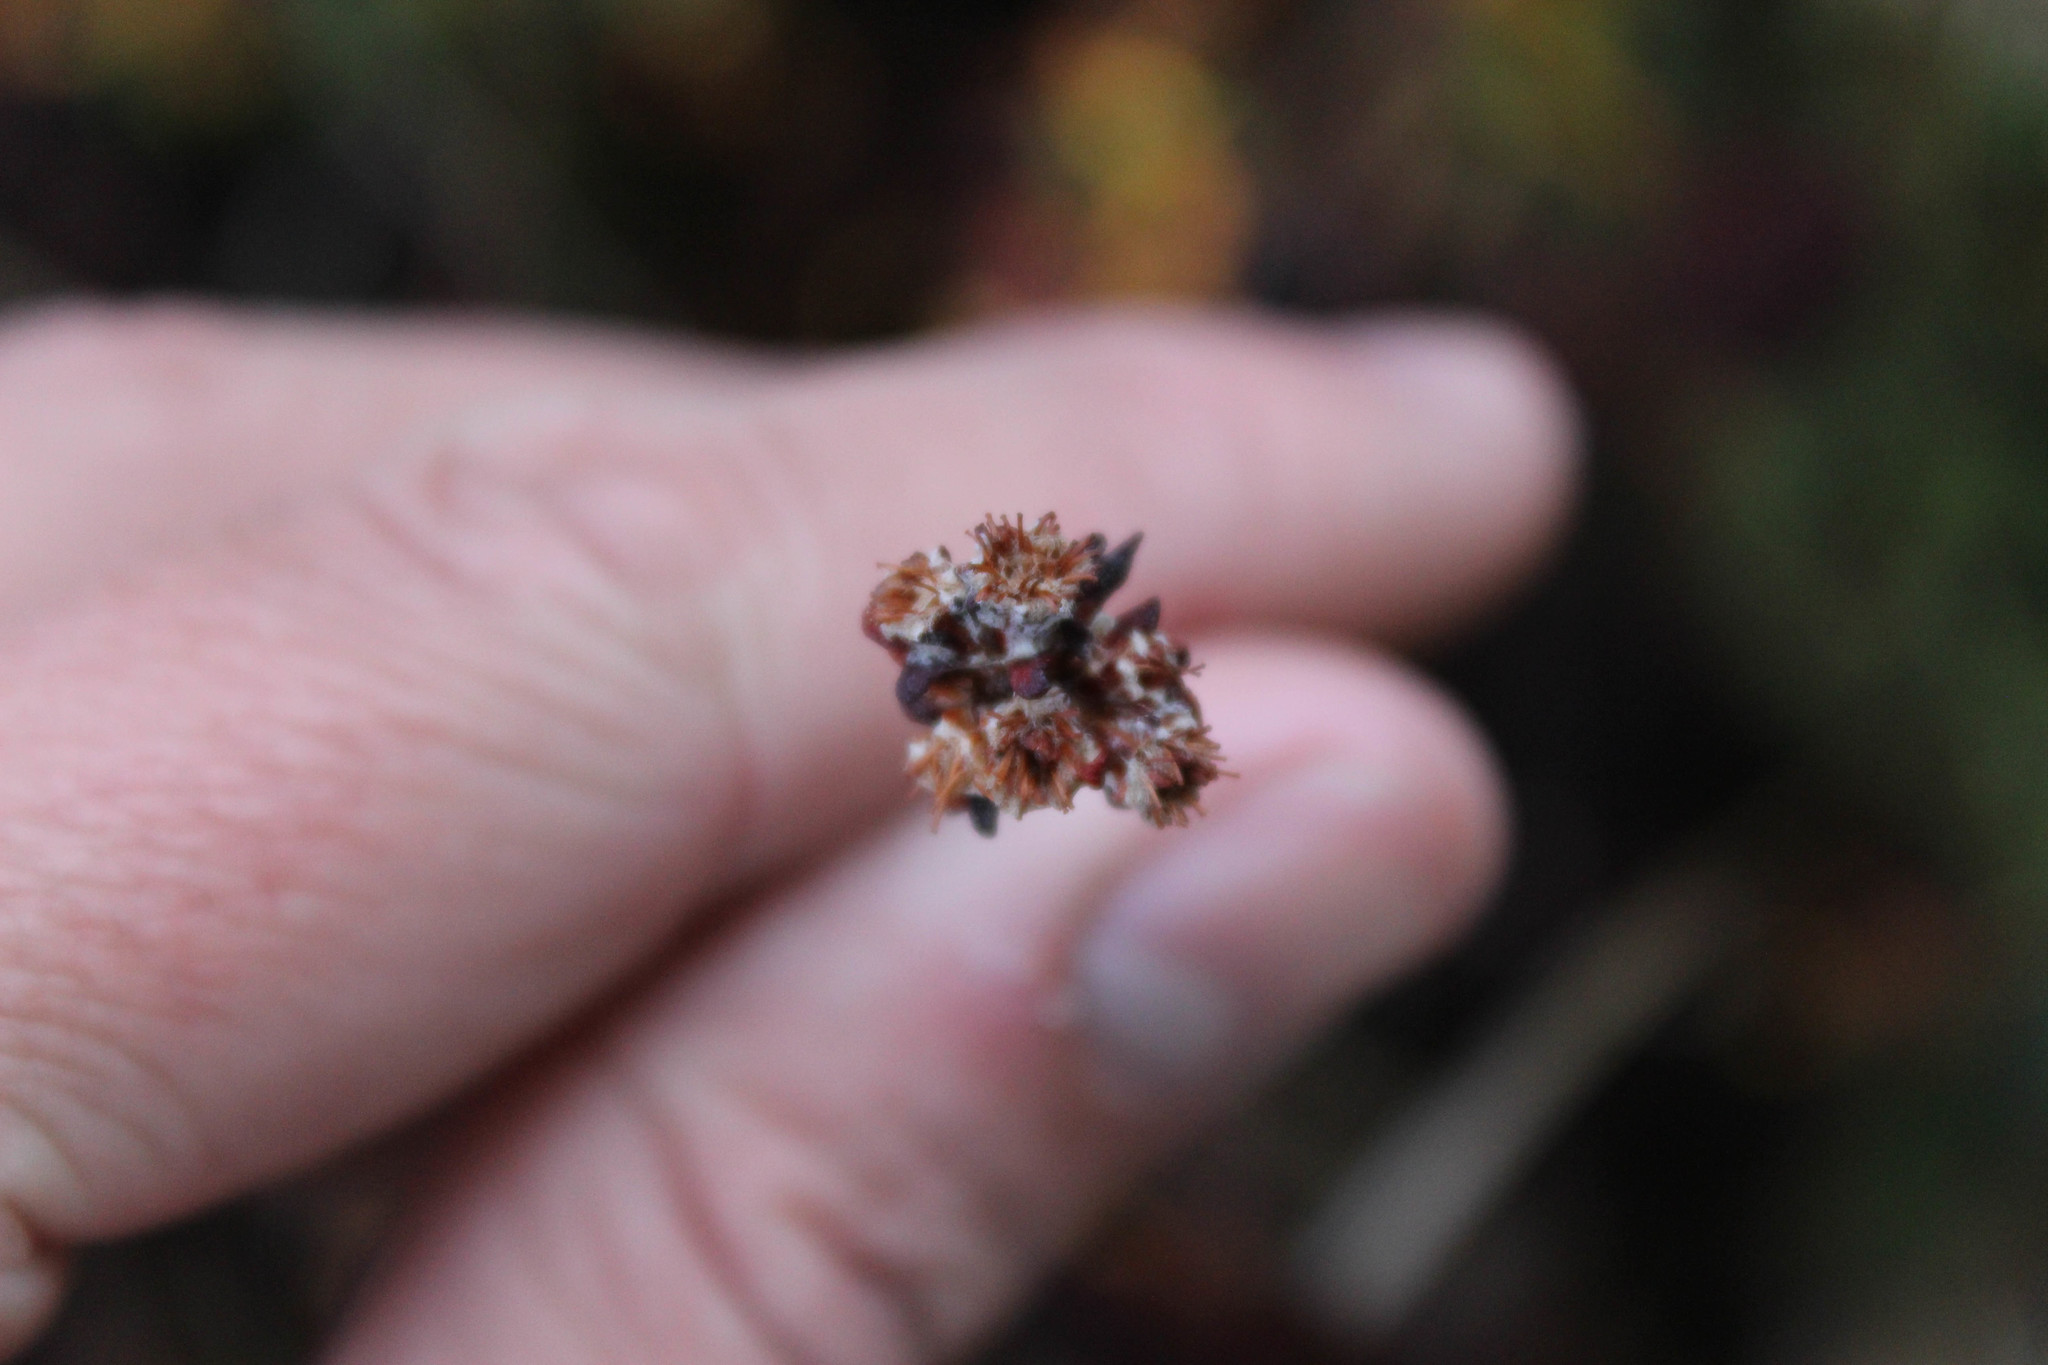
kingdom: Plantae
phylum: Tracheophyta
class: Magnoliopsida
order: Caryophyllales
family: Polygonaceae
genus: Eriogonum
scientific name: Eriogonum parvifolium
